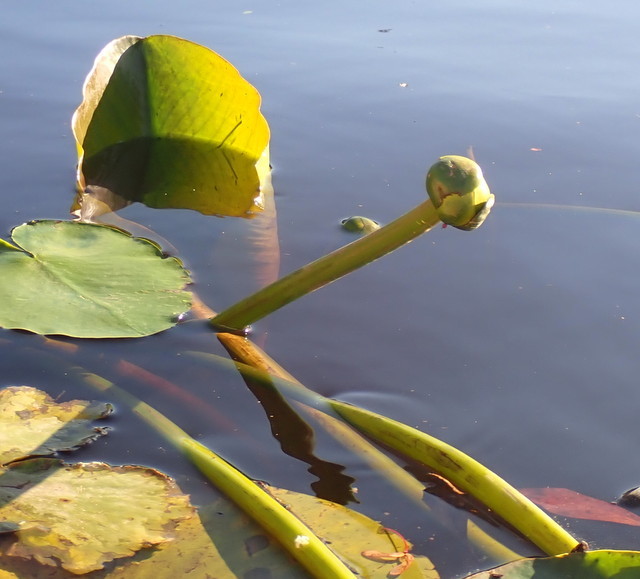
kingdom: Plantae
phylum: Tracheophyta
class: Magnoliopsida
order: Nymphaeales
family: Nymphaeaceae
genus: Nuphar
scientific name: Nuphar advena
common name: Spatter-dock
